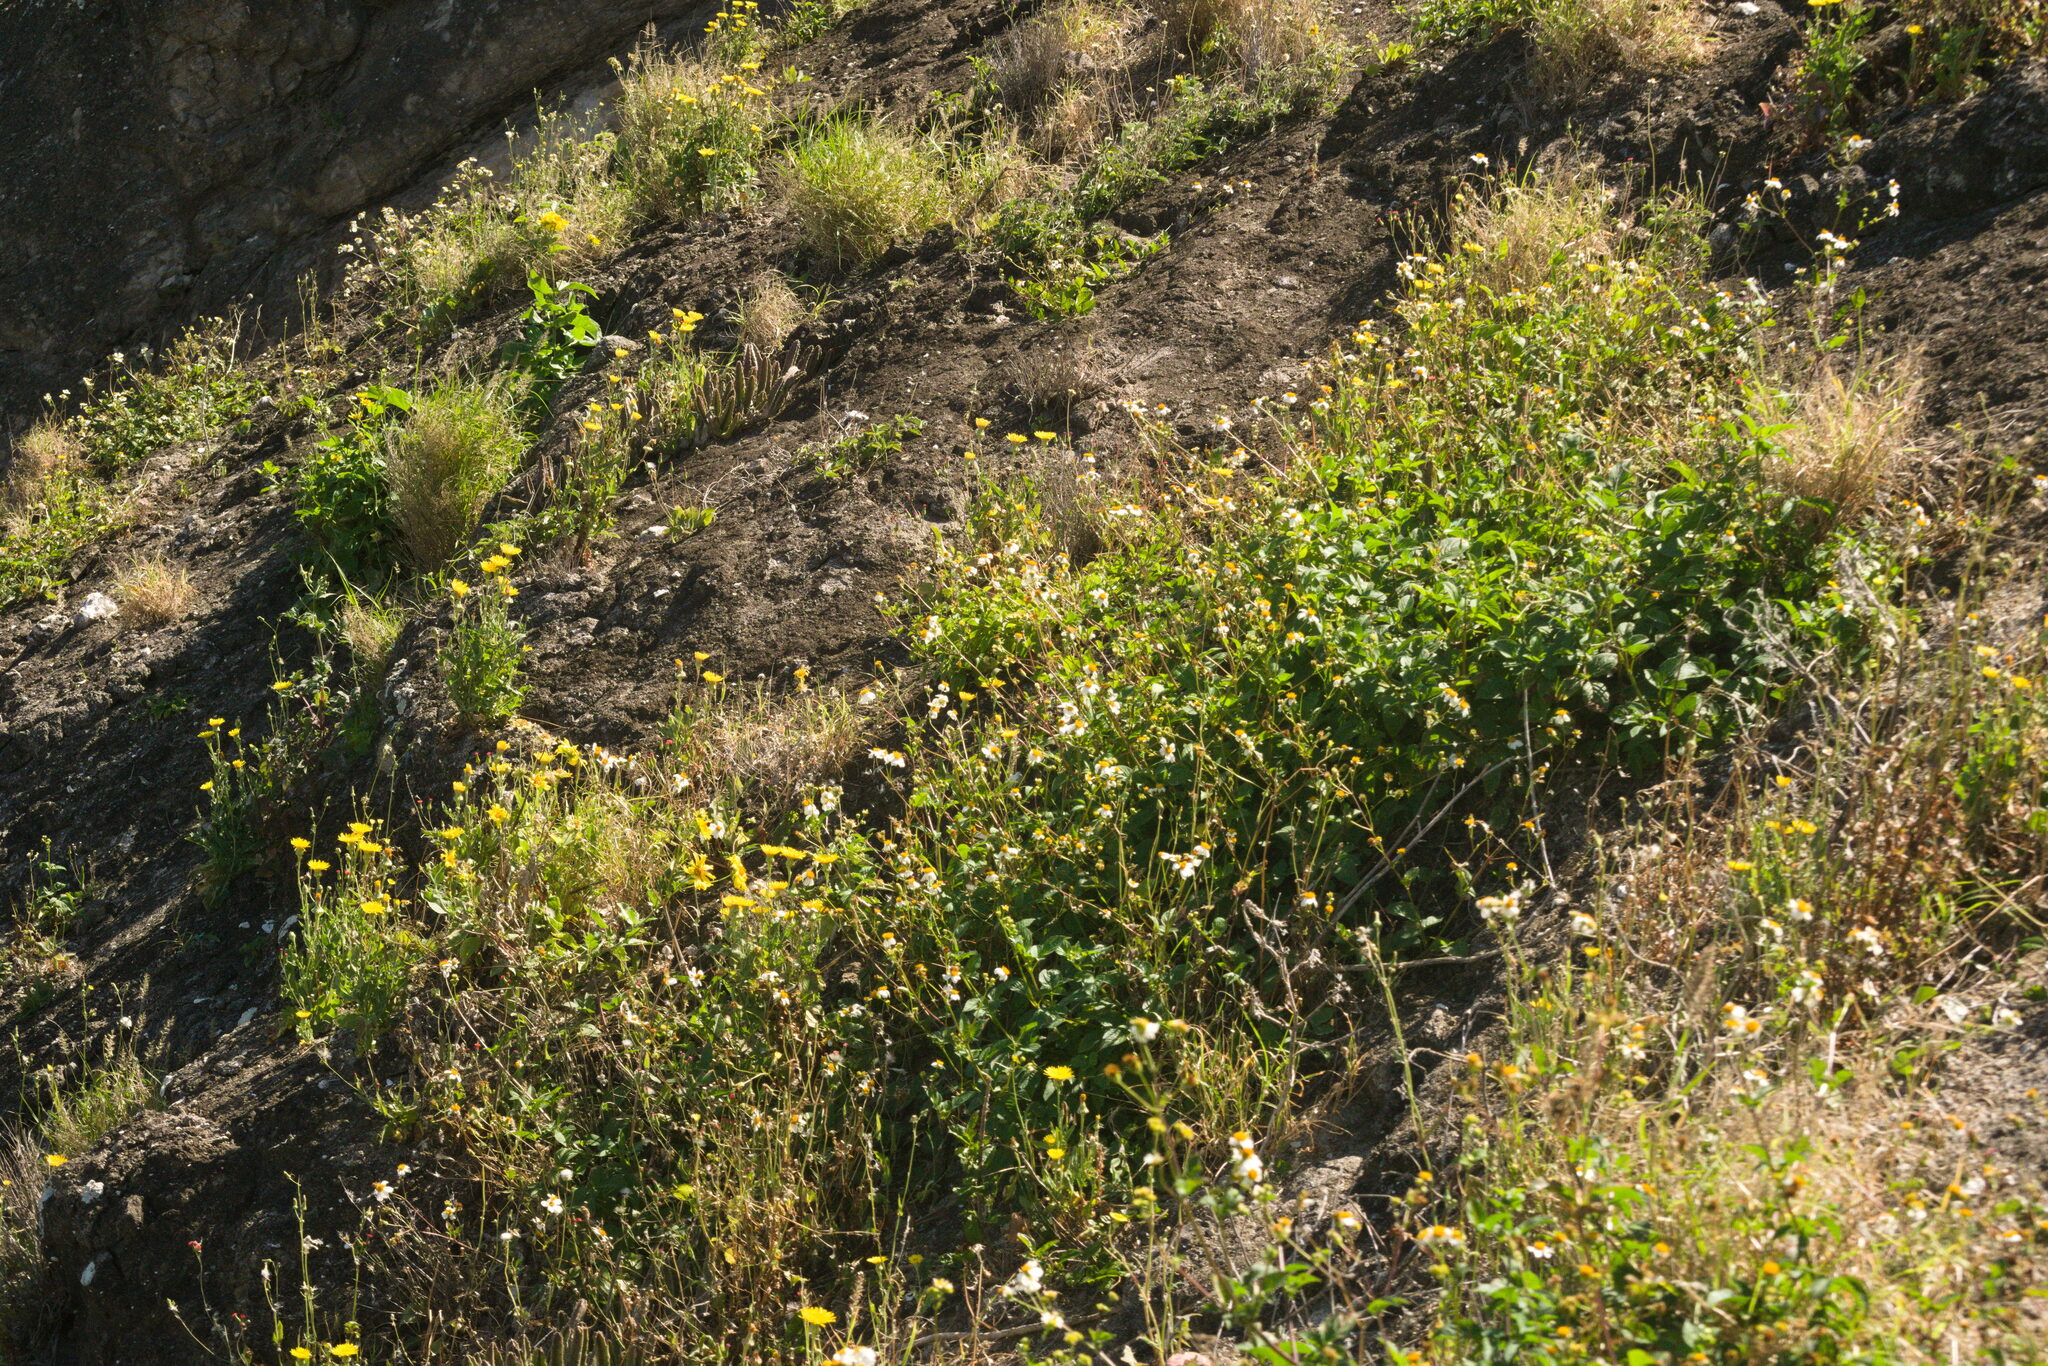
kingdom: Plantae
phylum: Tracheophyta
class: Magnoliopsida
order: Asterales
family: Asteraceae
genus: Bidens
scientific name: Bidens alba
